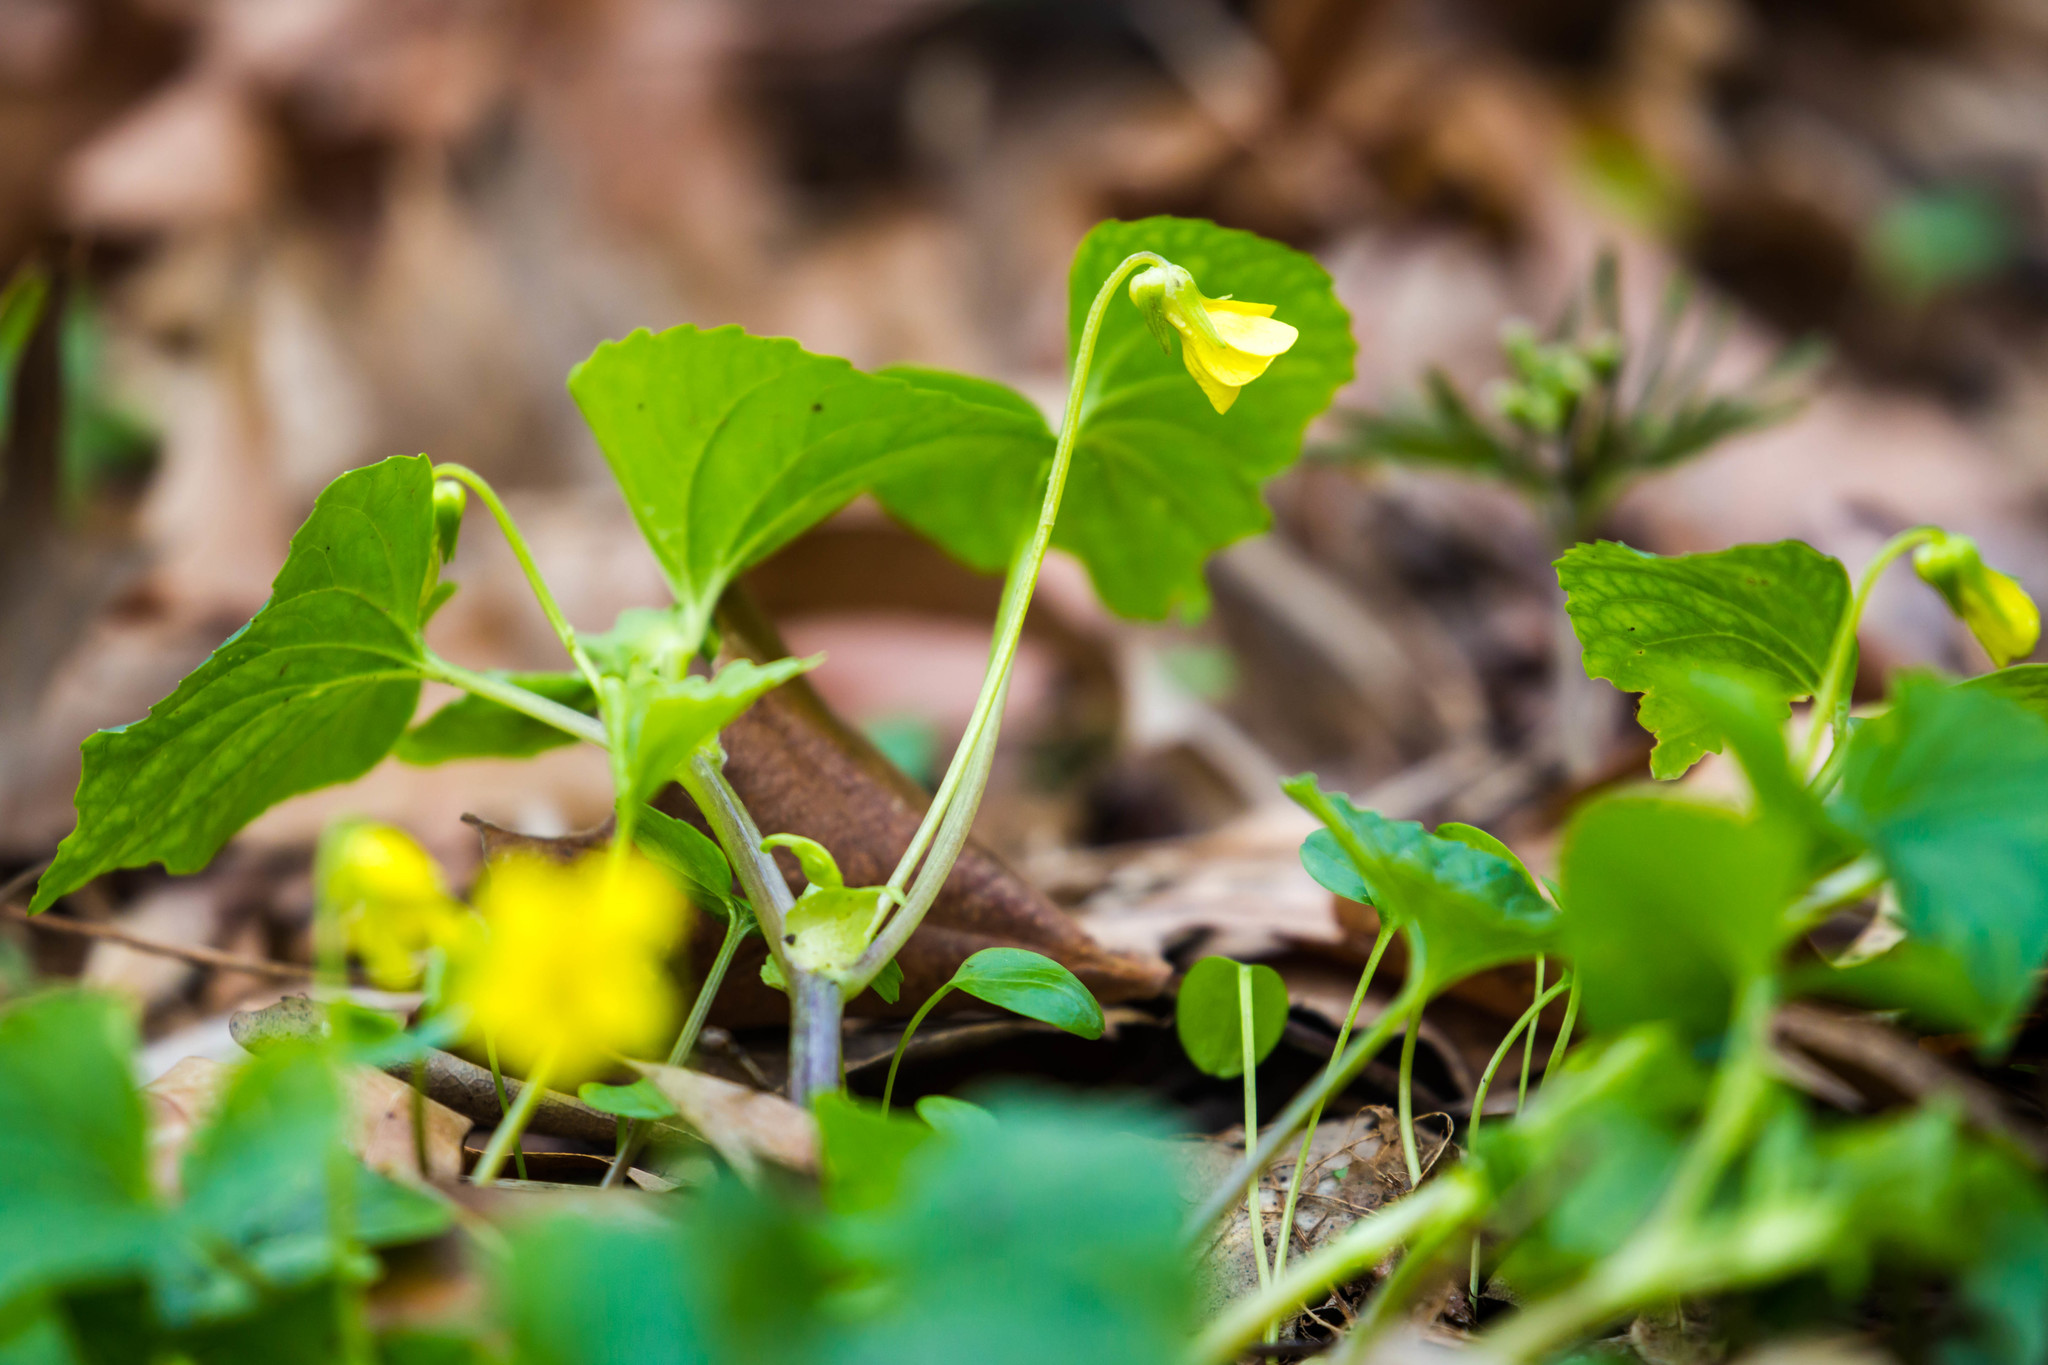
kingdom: Plantae
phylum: Tracheophyta
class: Magnoliopsida
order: Malpighiales
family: Violaceae
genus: Viola
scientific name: Viola eriocarpa
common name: Smooth yellow violet
